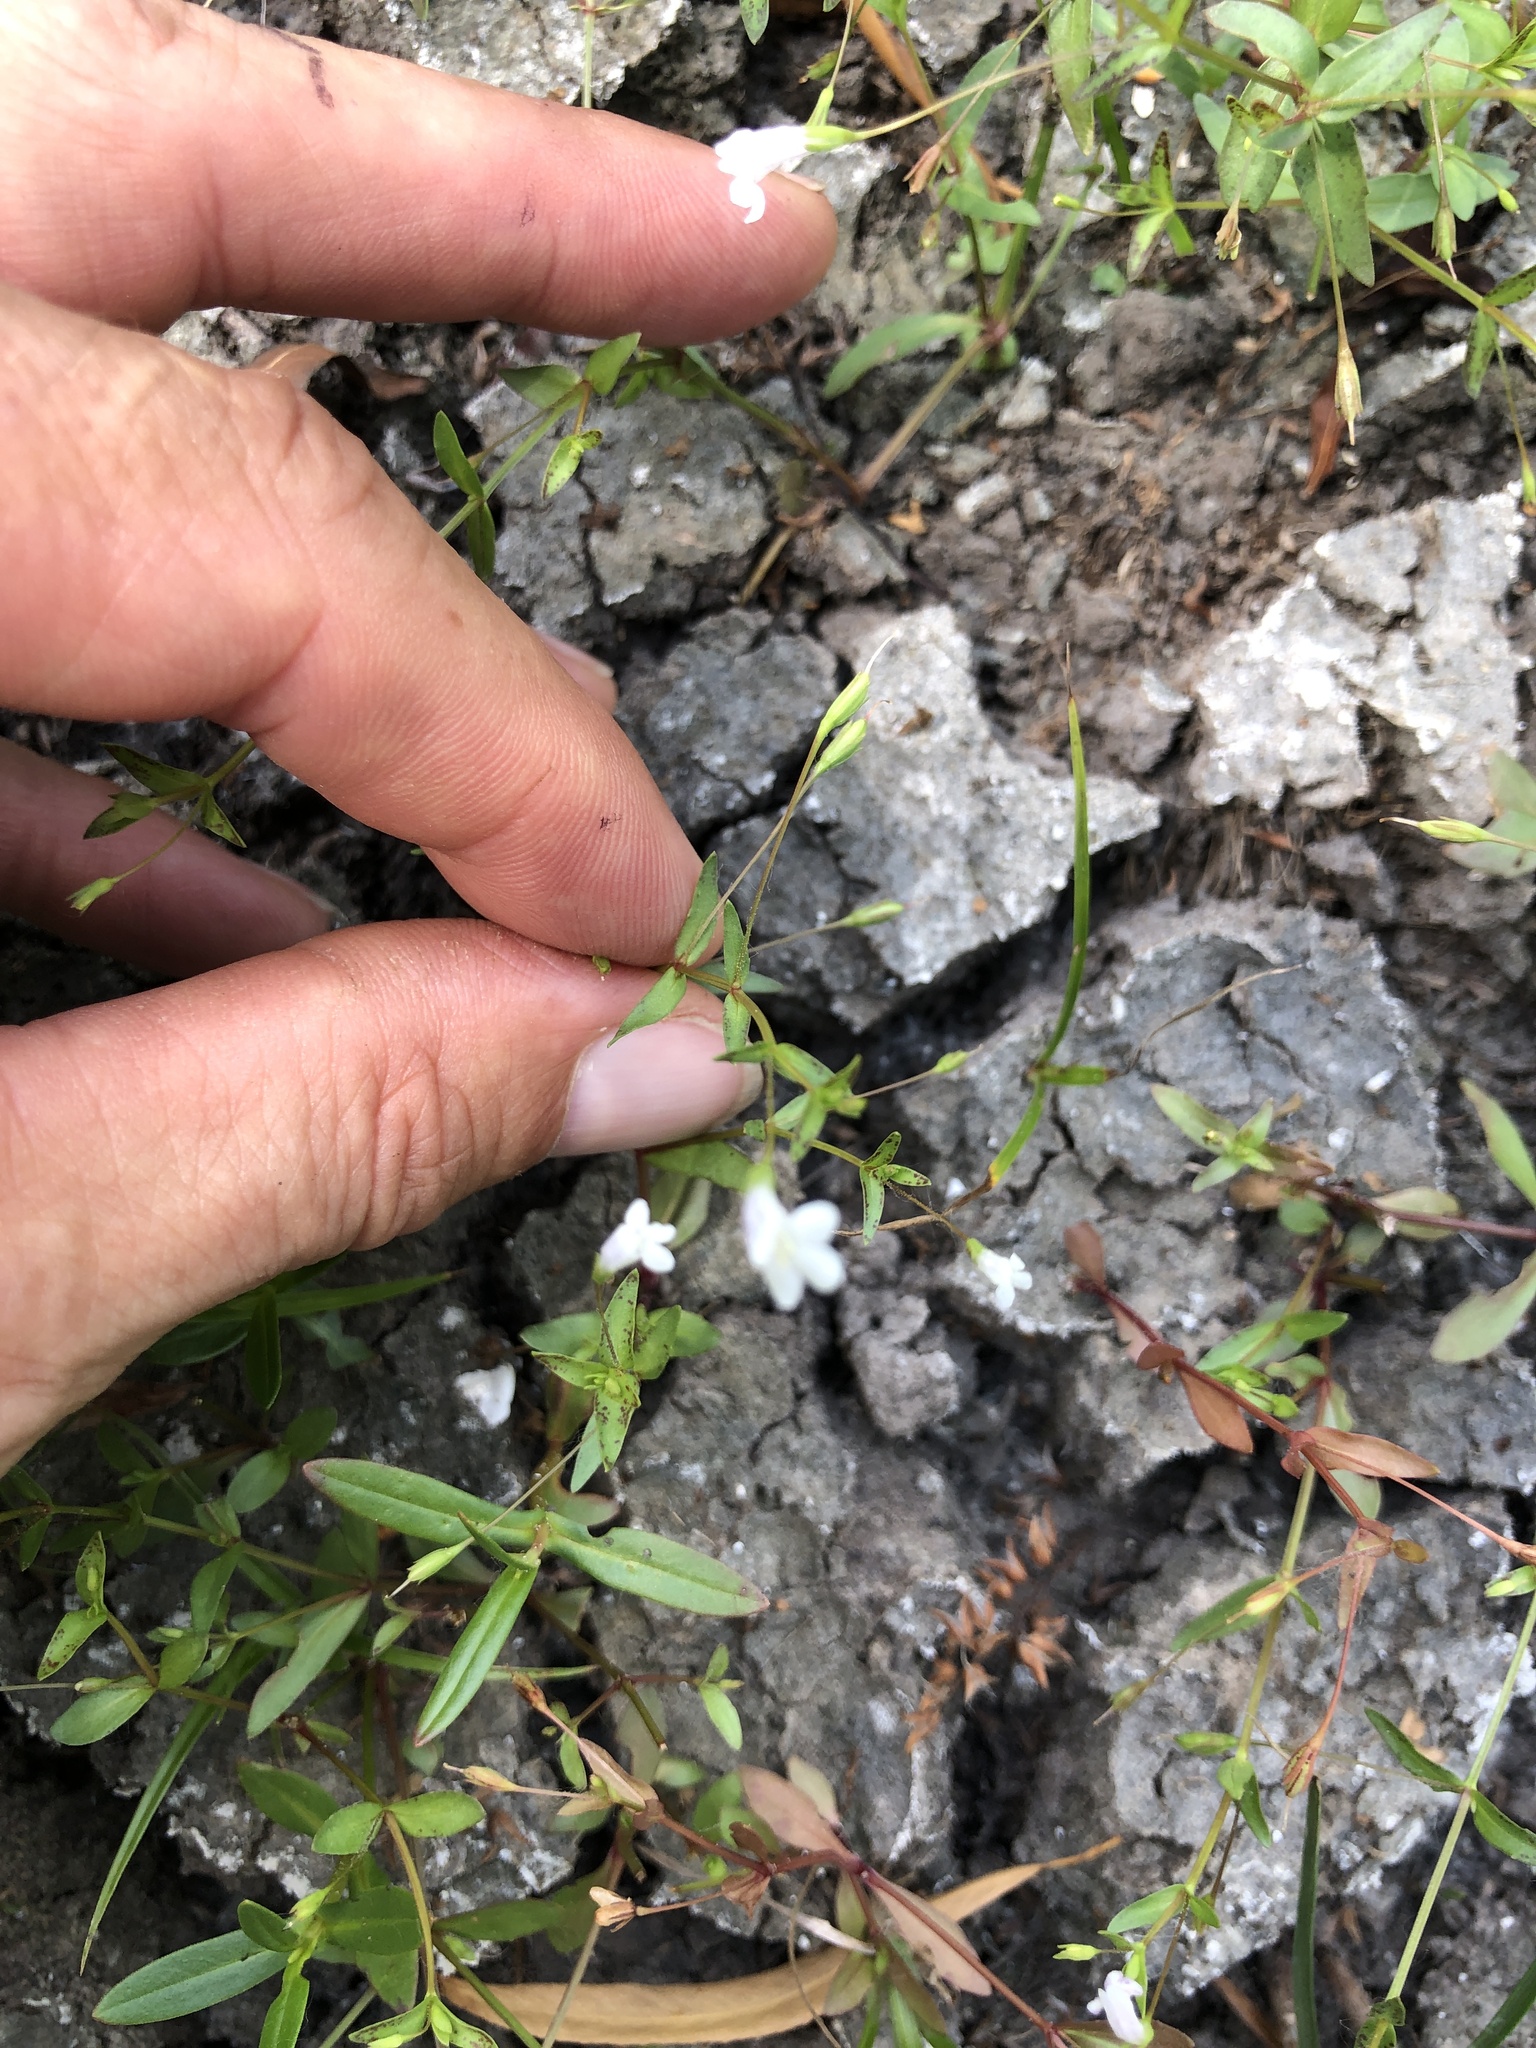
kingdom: Plantae
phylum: Tracheophyta
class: Magnoliopsida
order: Lamiales
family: Linderniaceae
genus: Lindernia
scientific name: Lindernia dubia
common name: Annual false pimpernel
